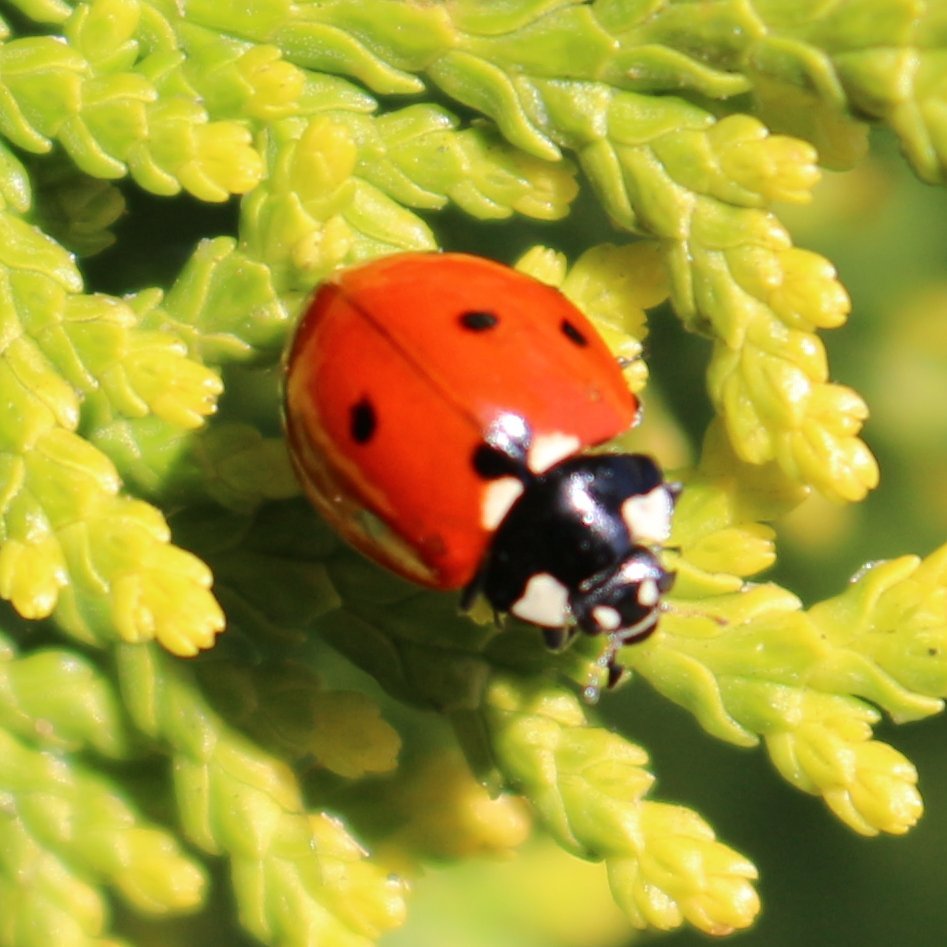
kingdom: Animalia
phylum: Arthropoda
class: Insecta
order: Coleoptera
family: Coccinellidae
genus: Coccinella
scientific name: Coccinella septempunctata
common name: Sevenspotted lady beetle
